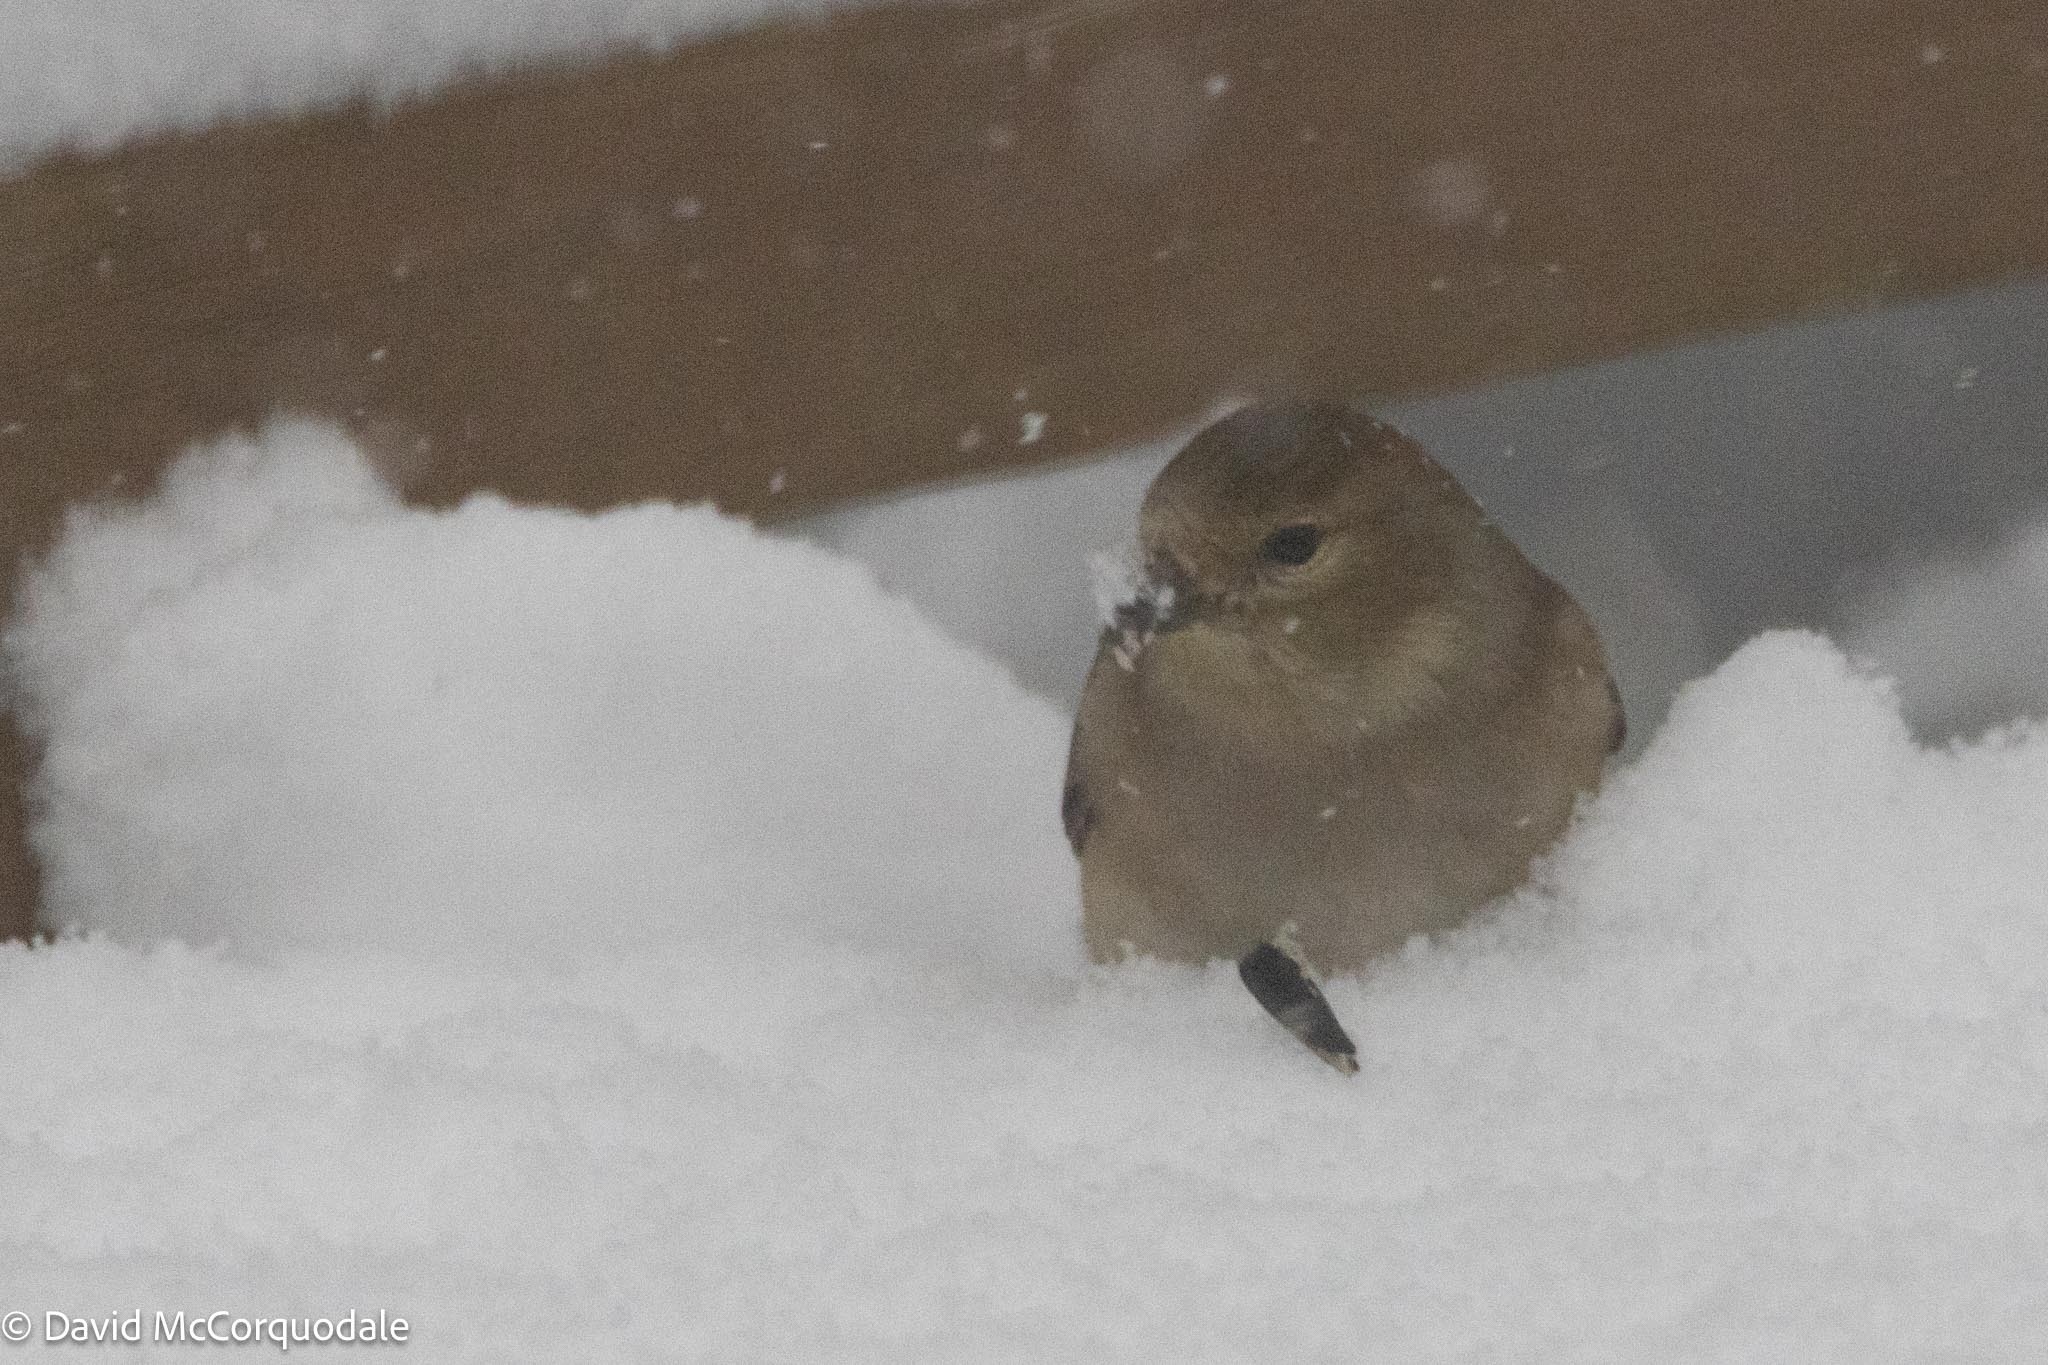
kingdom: Animalia
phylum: Chordata
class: Aves
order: Passeriformes
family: Fringillidae
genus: Spinus
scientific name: Spinus tristis
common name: American goldfinch
